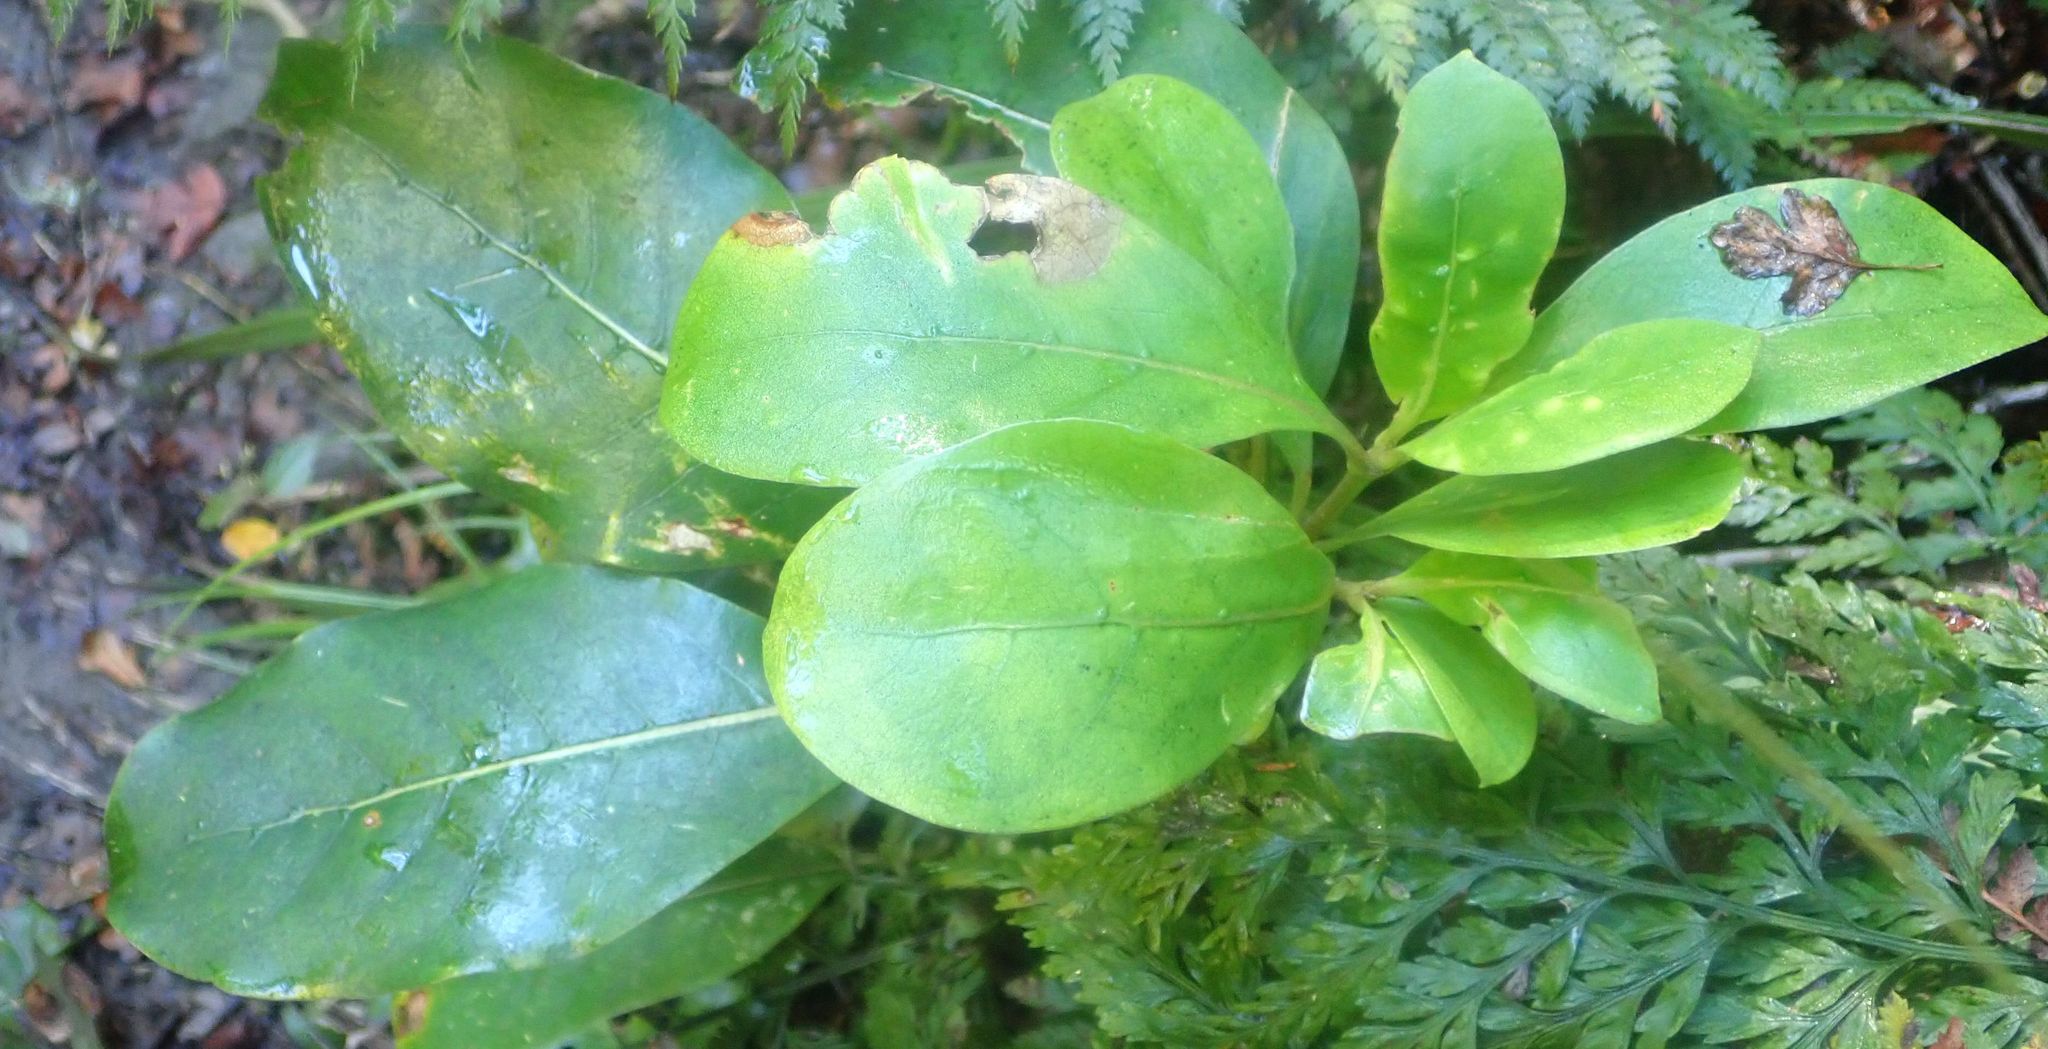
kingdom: Plantae
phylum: Tracheophyta
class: Magnoliopsida
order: Gentianales
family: Rubiaceae
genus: Coprosma
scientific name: Coprosma lucida
